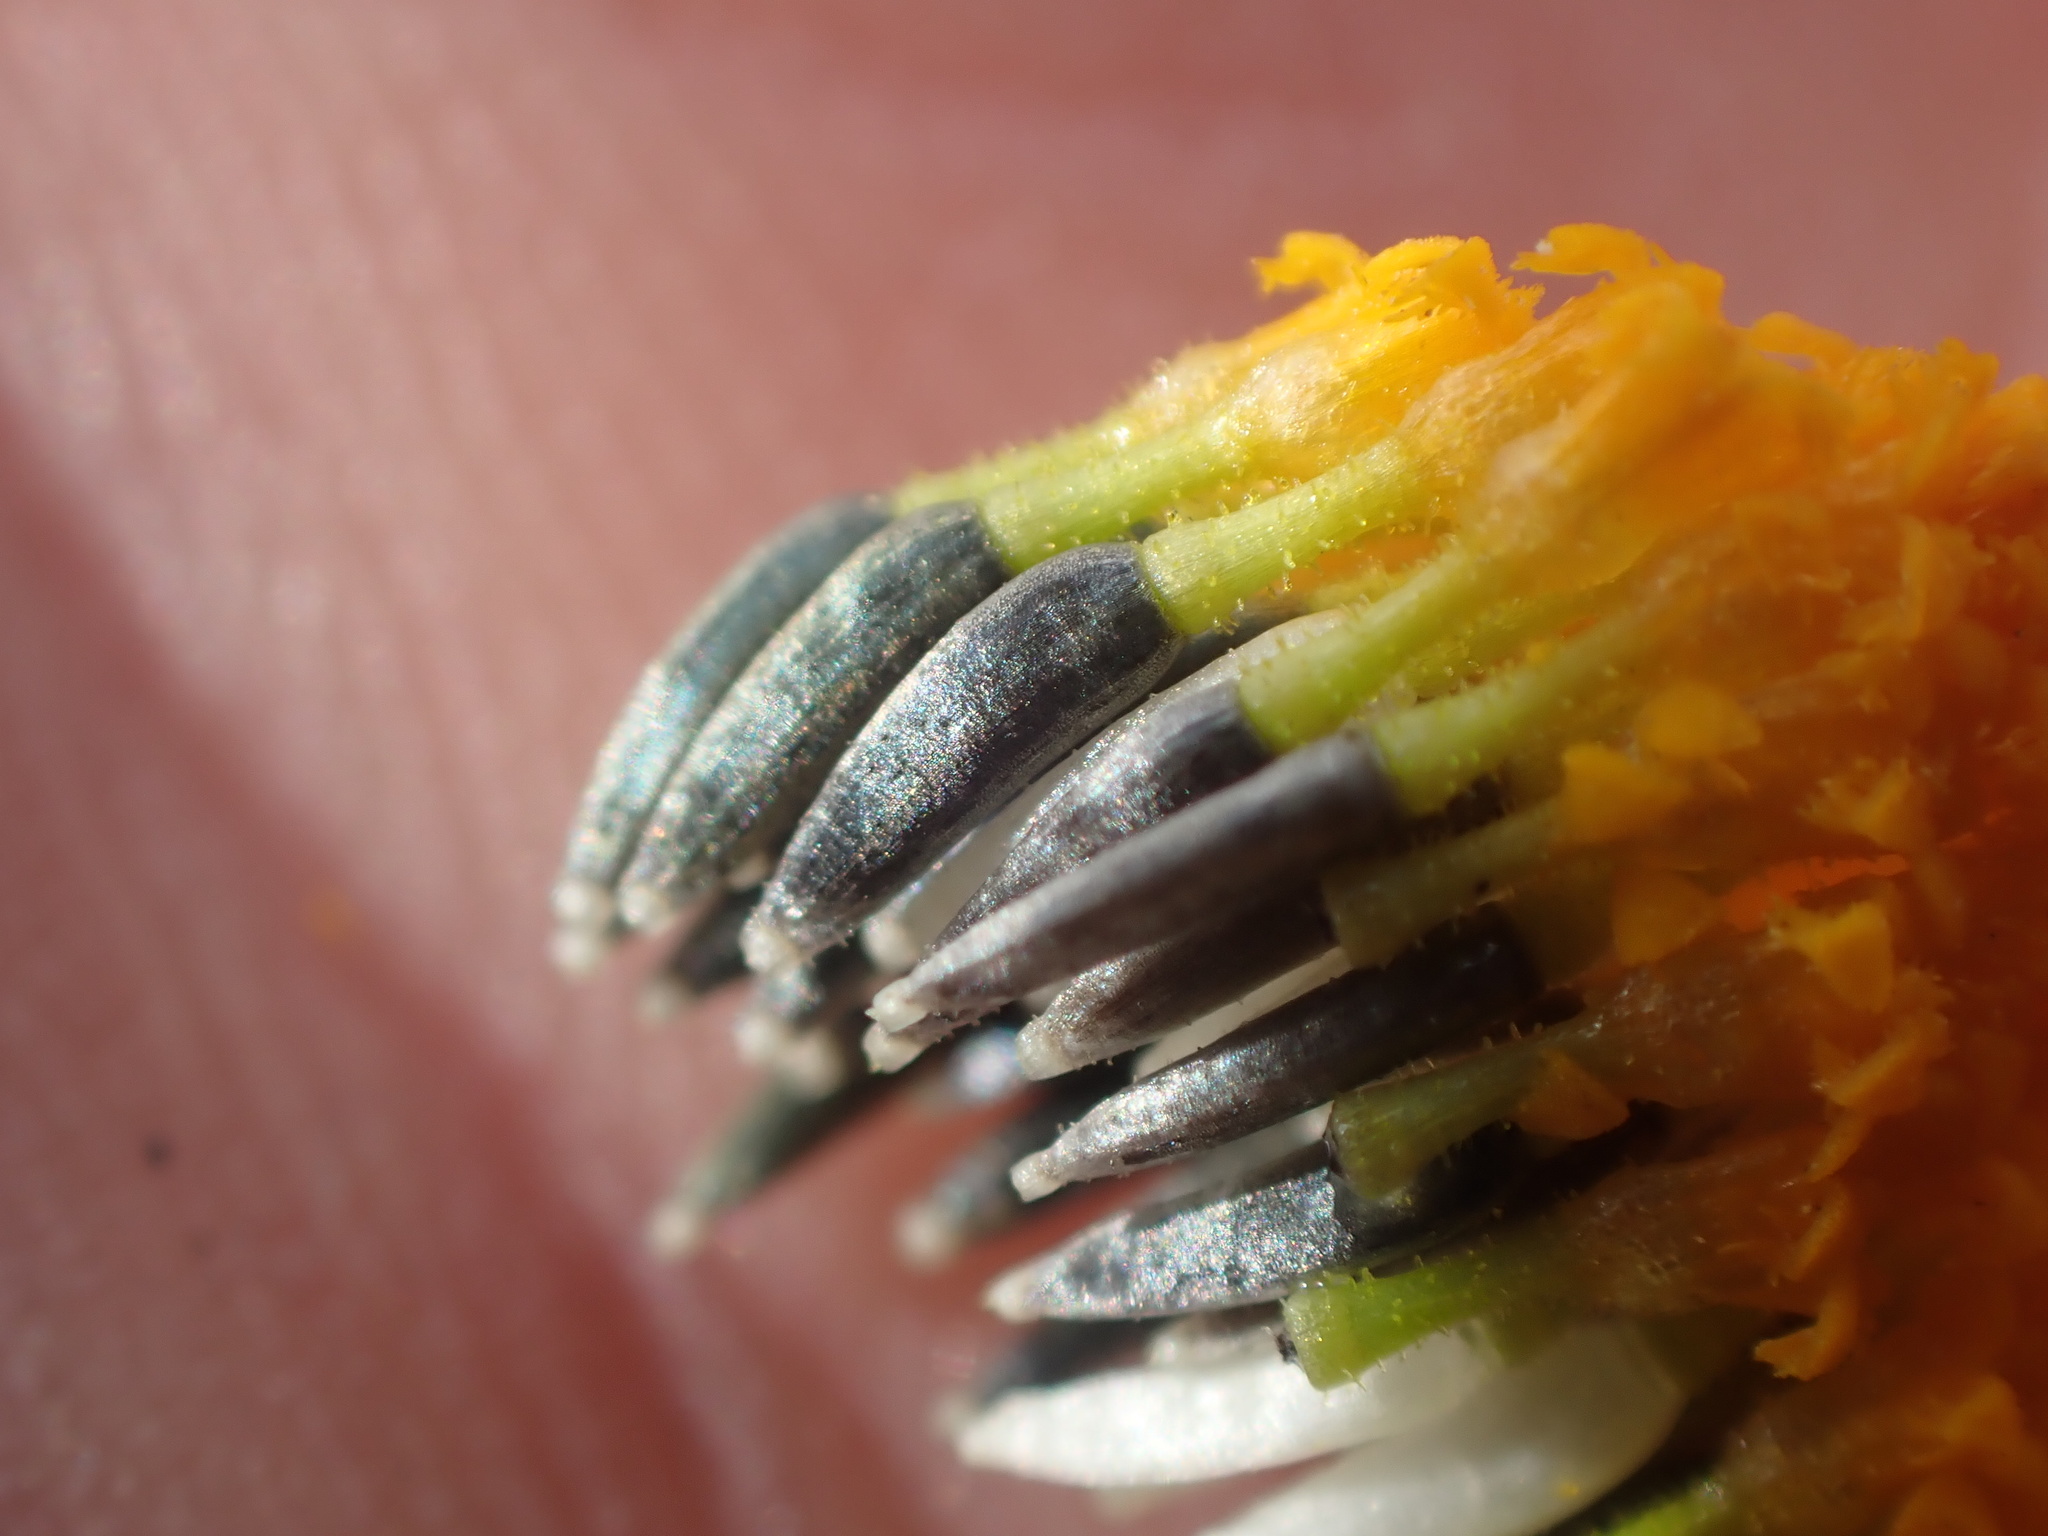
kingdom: Plantae
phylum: Tracheophyta
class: Magnoliopsida
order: Asterales
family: Asteraceae
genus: Lasthenia
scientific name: Lasthenia glabrata
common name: Yellow-ray lasthenia
